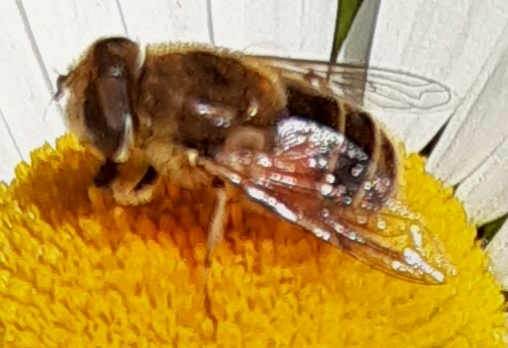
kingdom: Animalia
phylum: Arthropoda
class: Insecta
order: Diptera
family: Syrphidae
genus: Eristalis
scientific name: Eristalis arbustorum
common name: Hover fly
